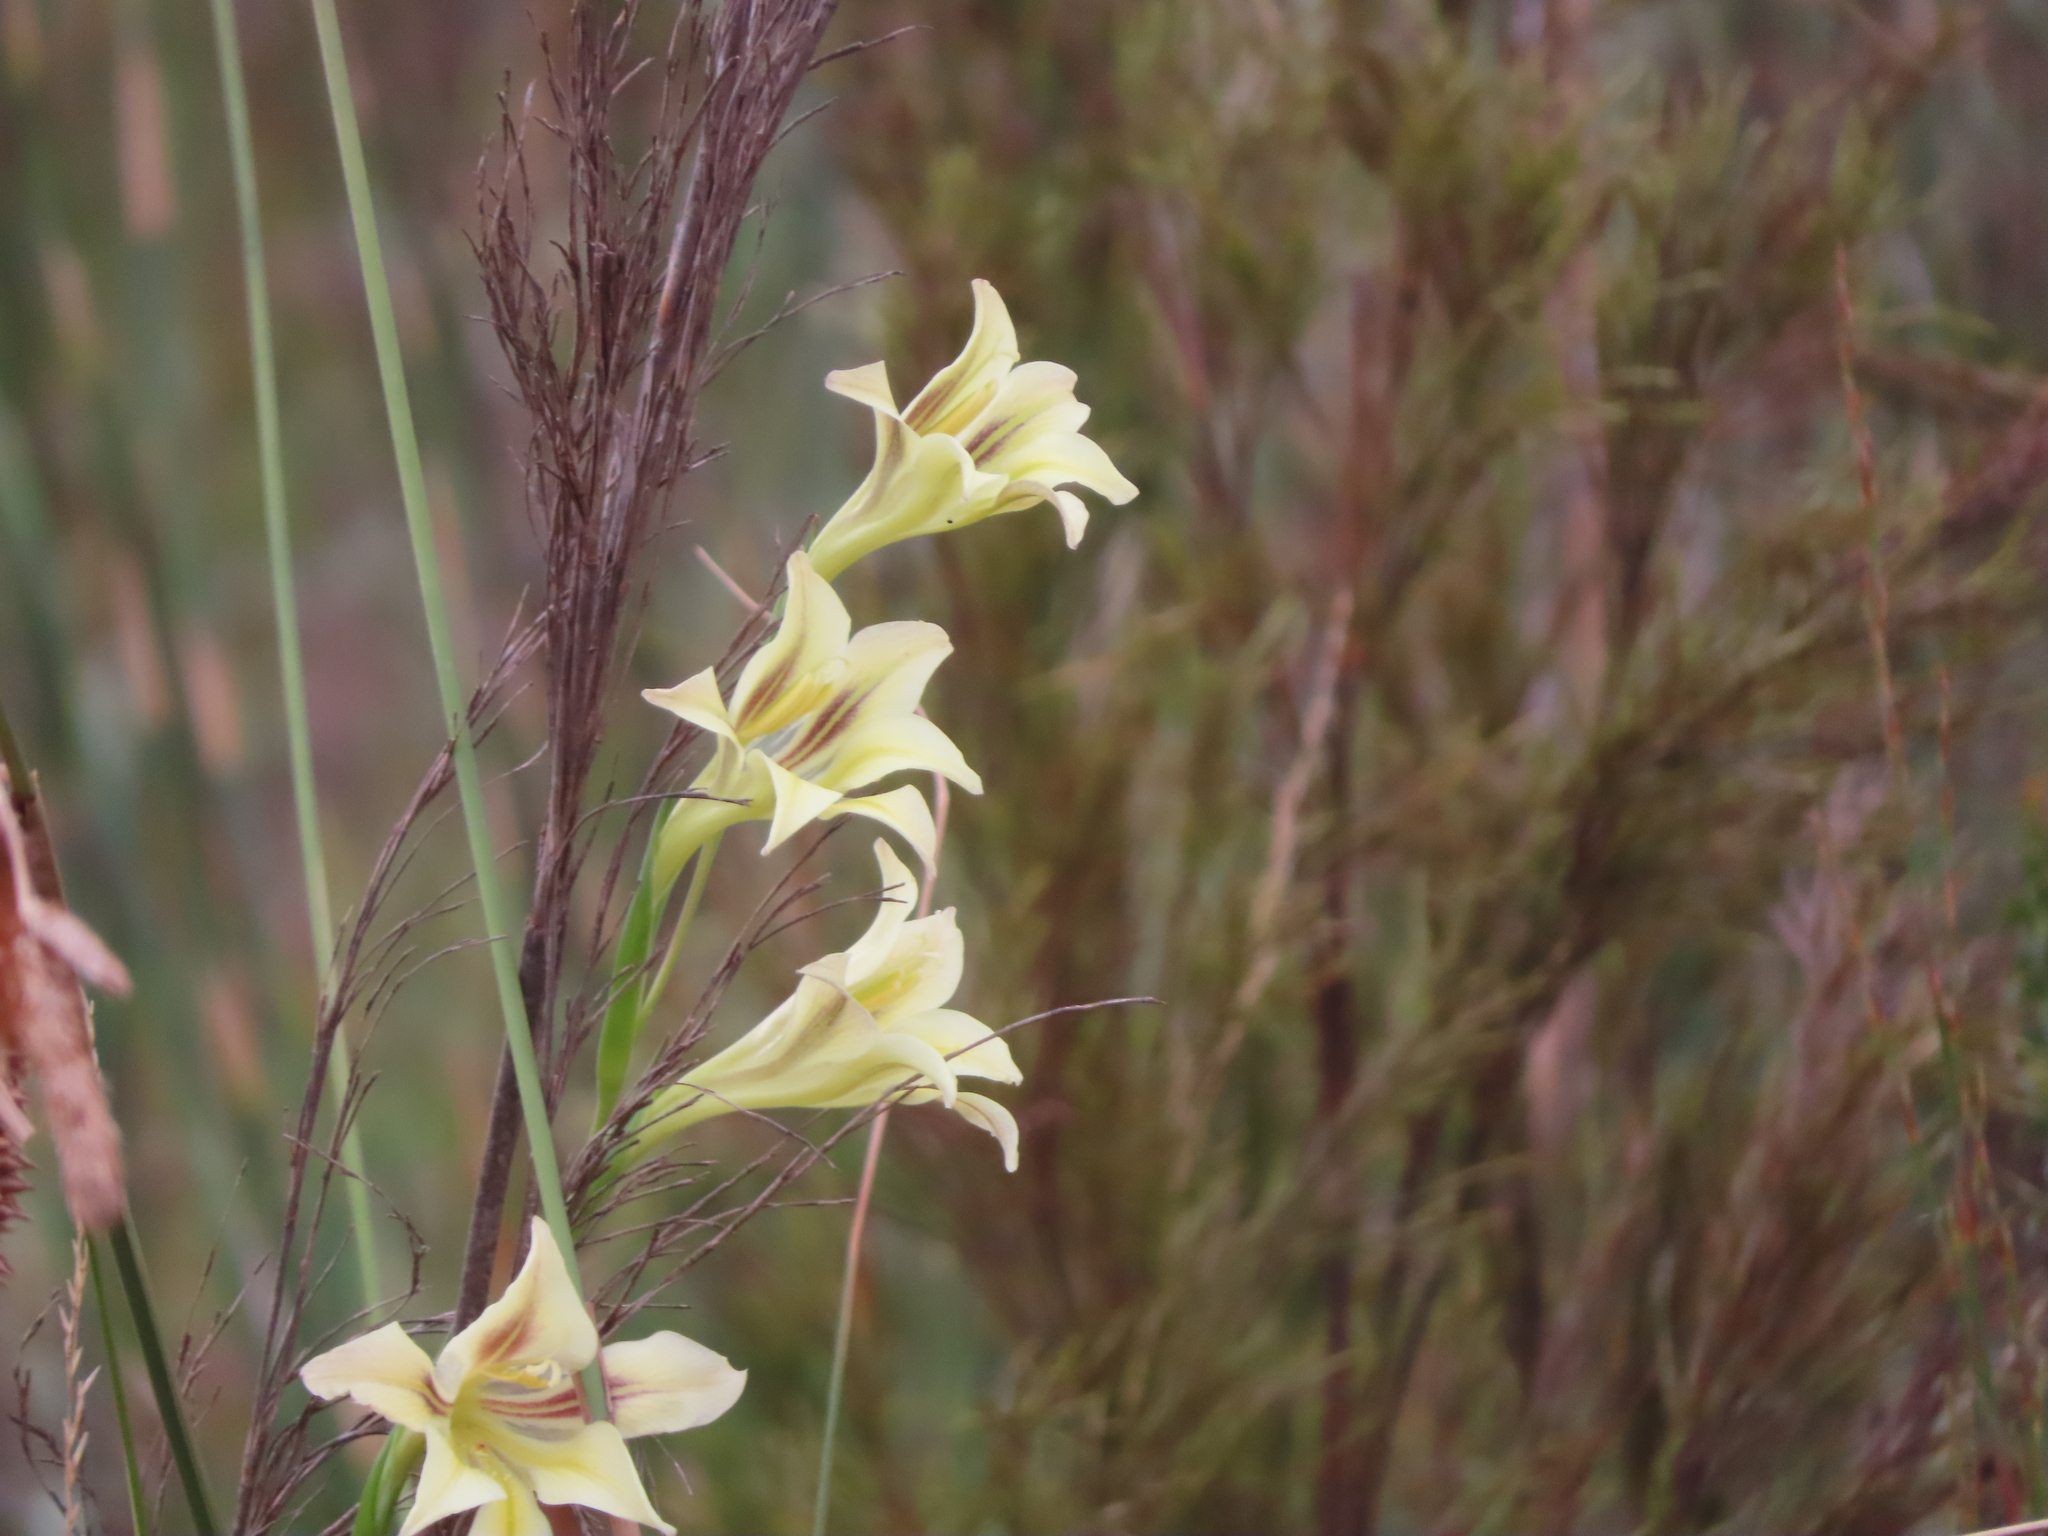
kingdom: Plantae
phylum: Tracheophyta
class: Liliopsida
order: Asparagales
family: Iridaceae
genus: Gladiolus
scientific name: Gladiolus tristis
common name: Ever-flowering gladiolus
